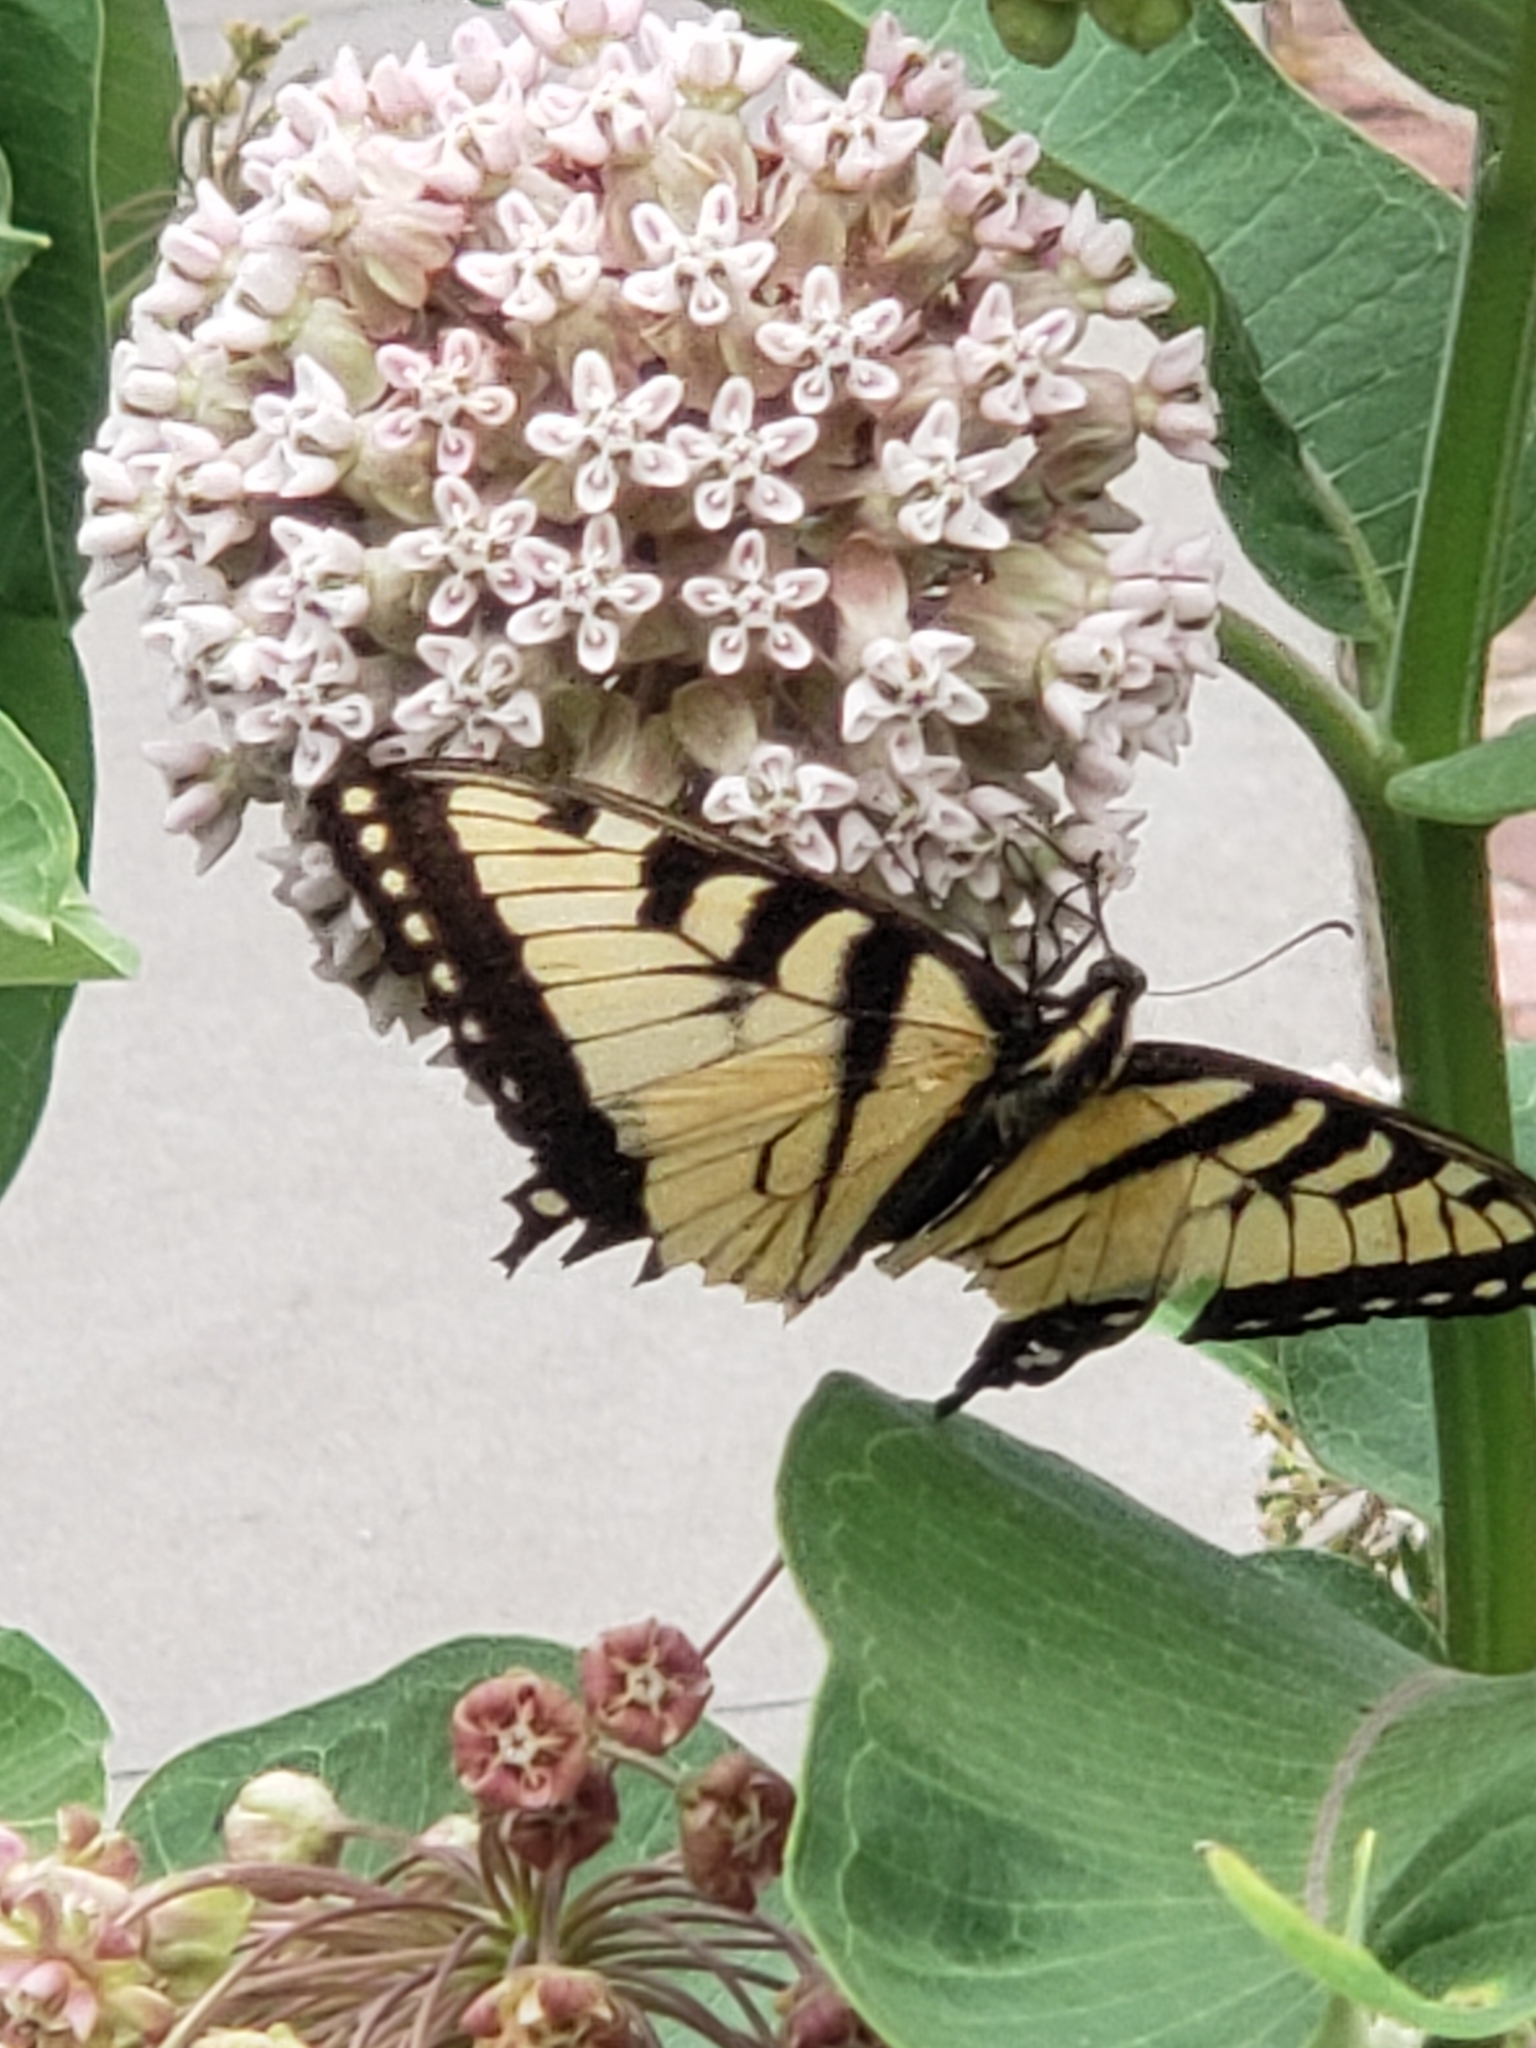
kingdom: Animalia
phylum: Arthropoda
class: Insecta
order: Lepidoptera
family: Papilionidae
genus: Papilio
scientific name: Papilio glaucus
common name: Tiger swallowtail
